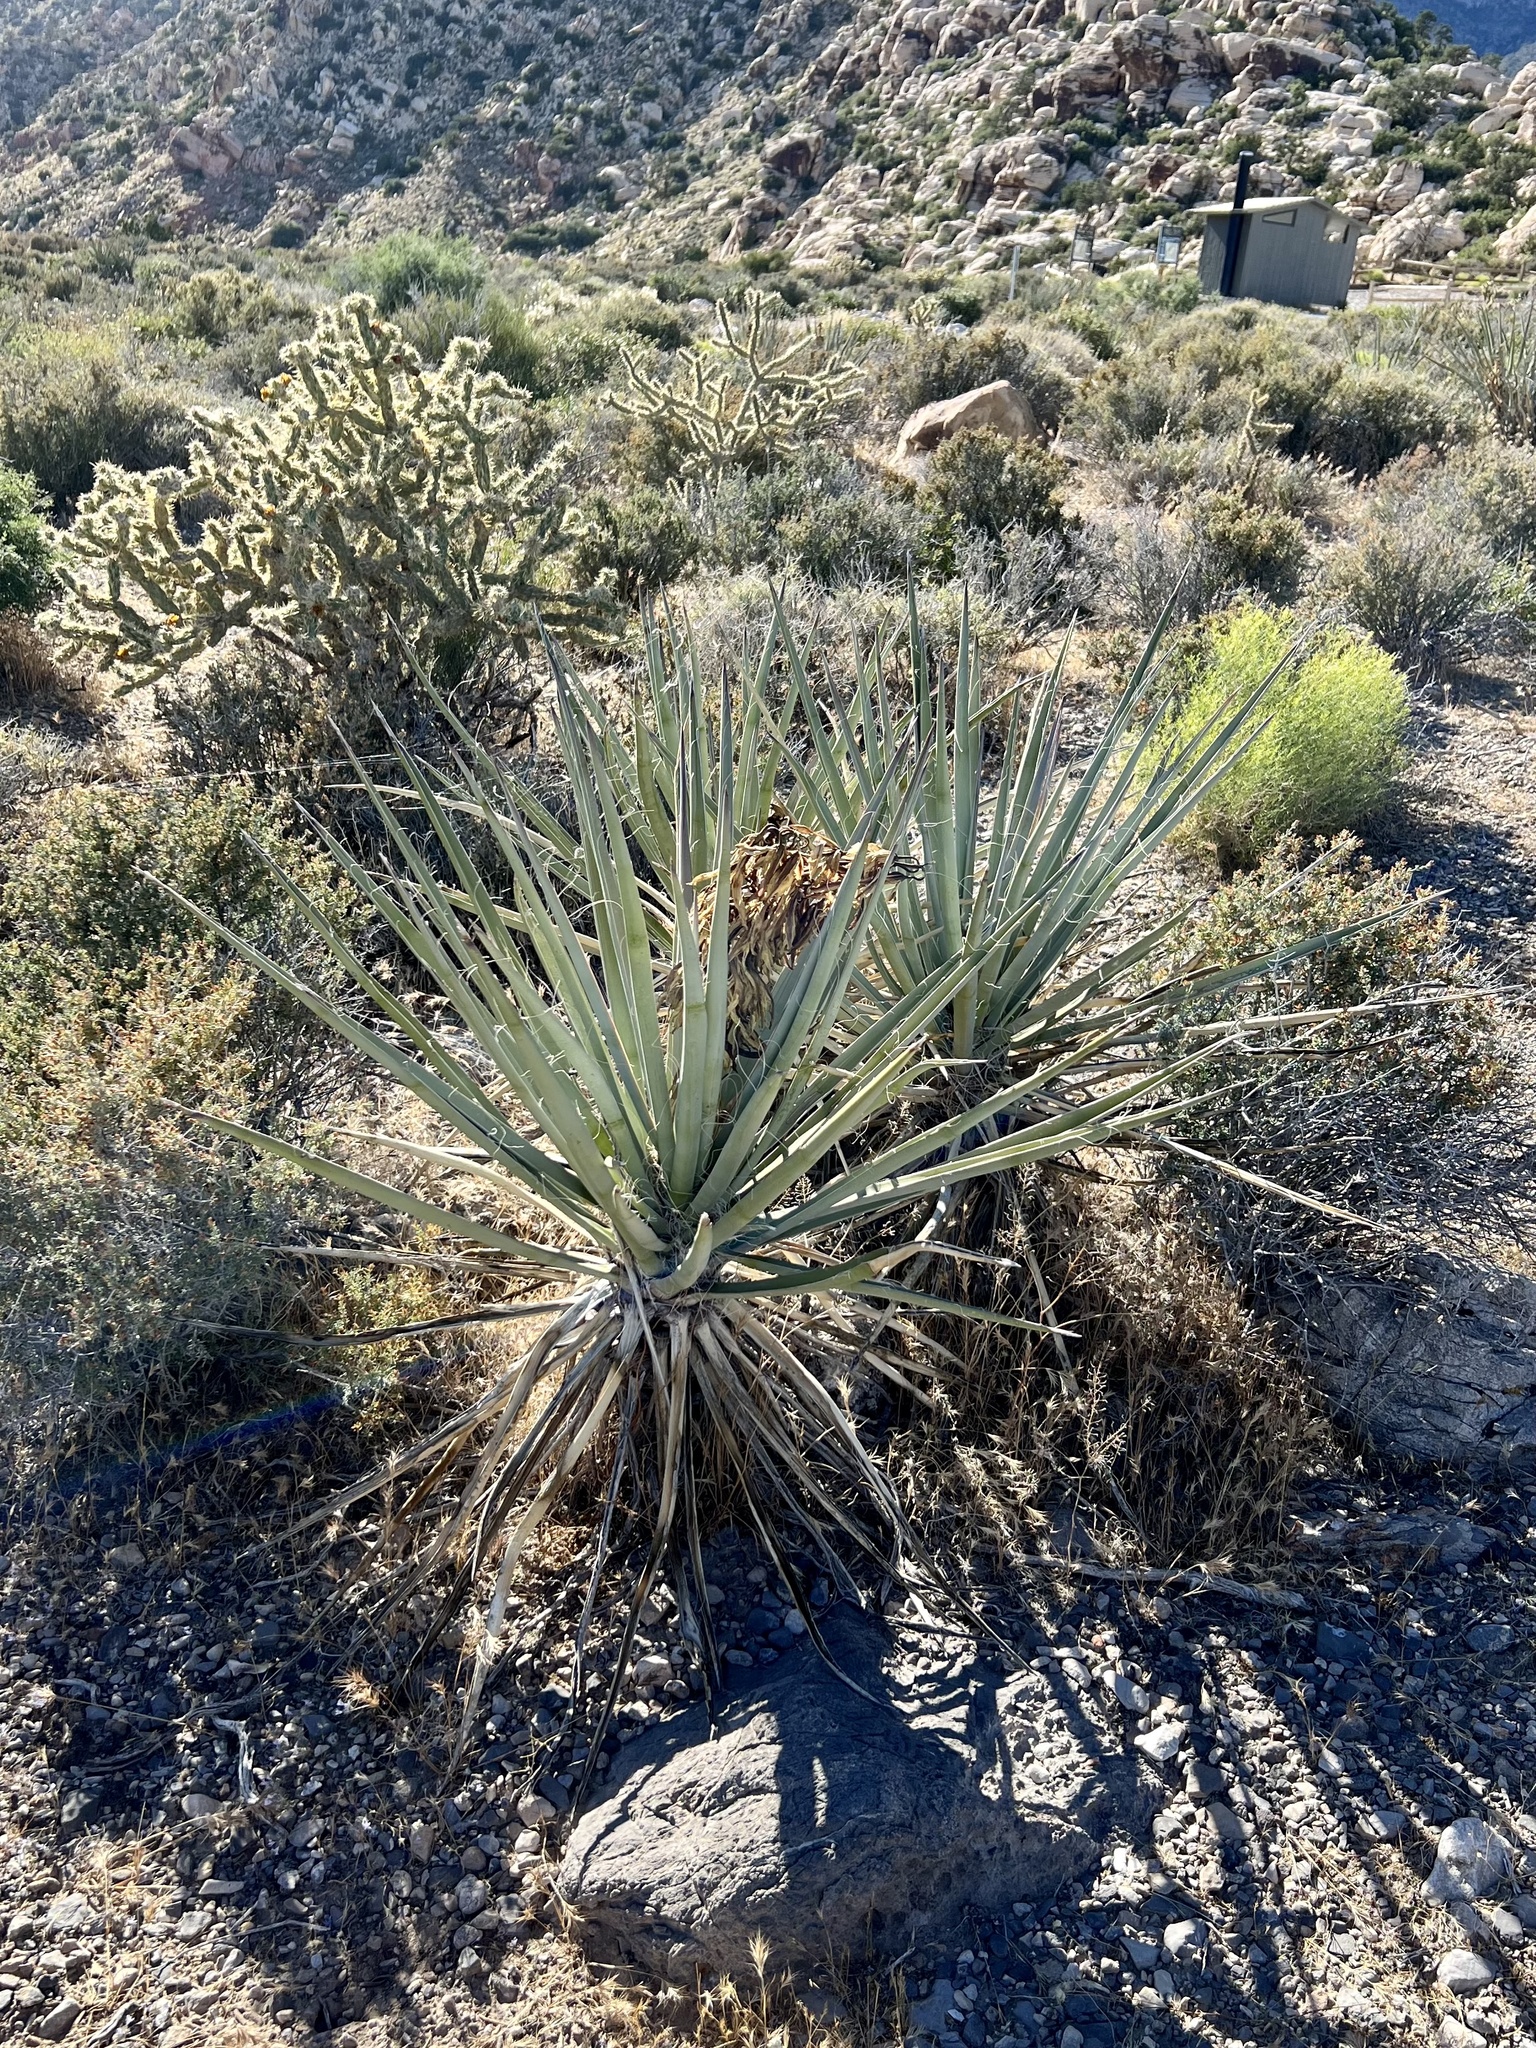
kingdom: Plantae
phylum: Tracheophyta
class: Liliopsida
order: Asparagales
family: Asparagaceae
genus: Yucca
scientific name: Yucca baccata
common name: Banana yucca
